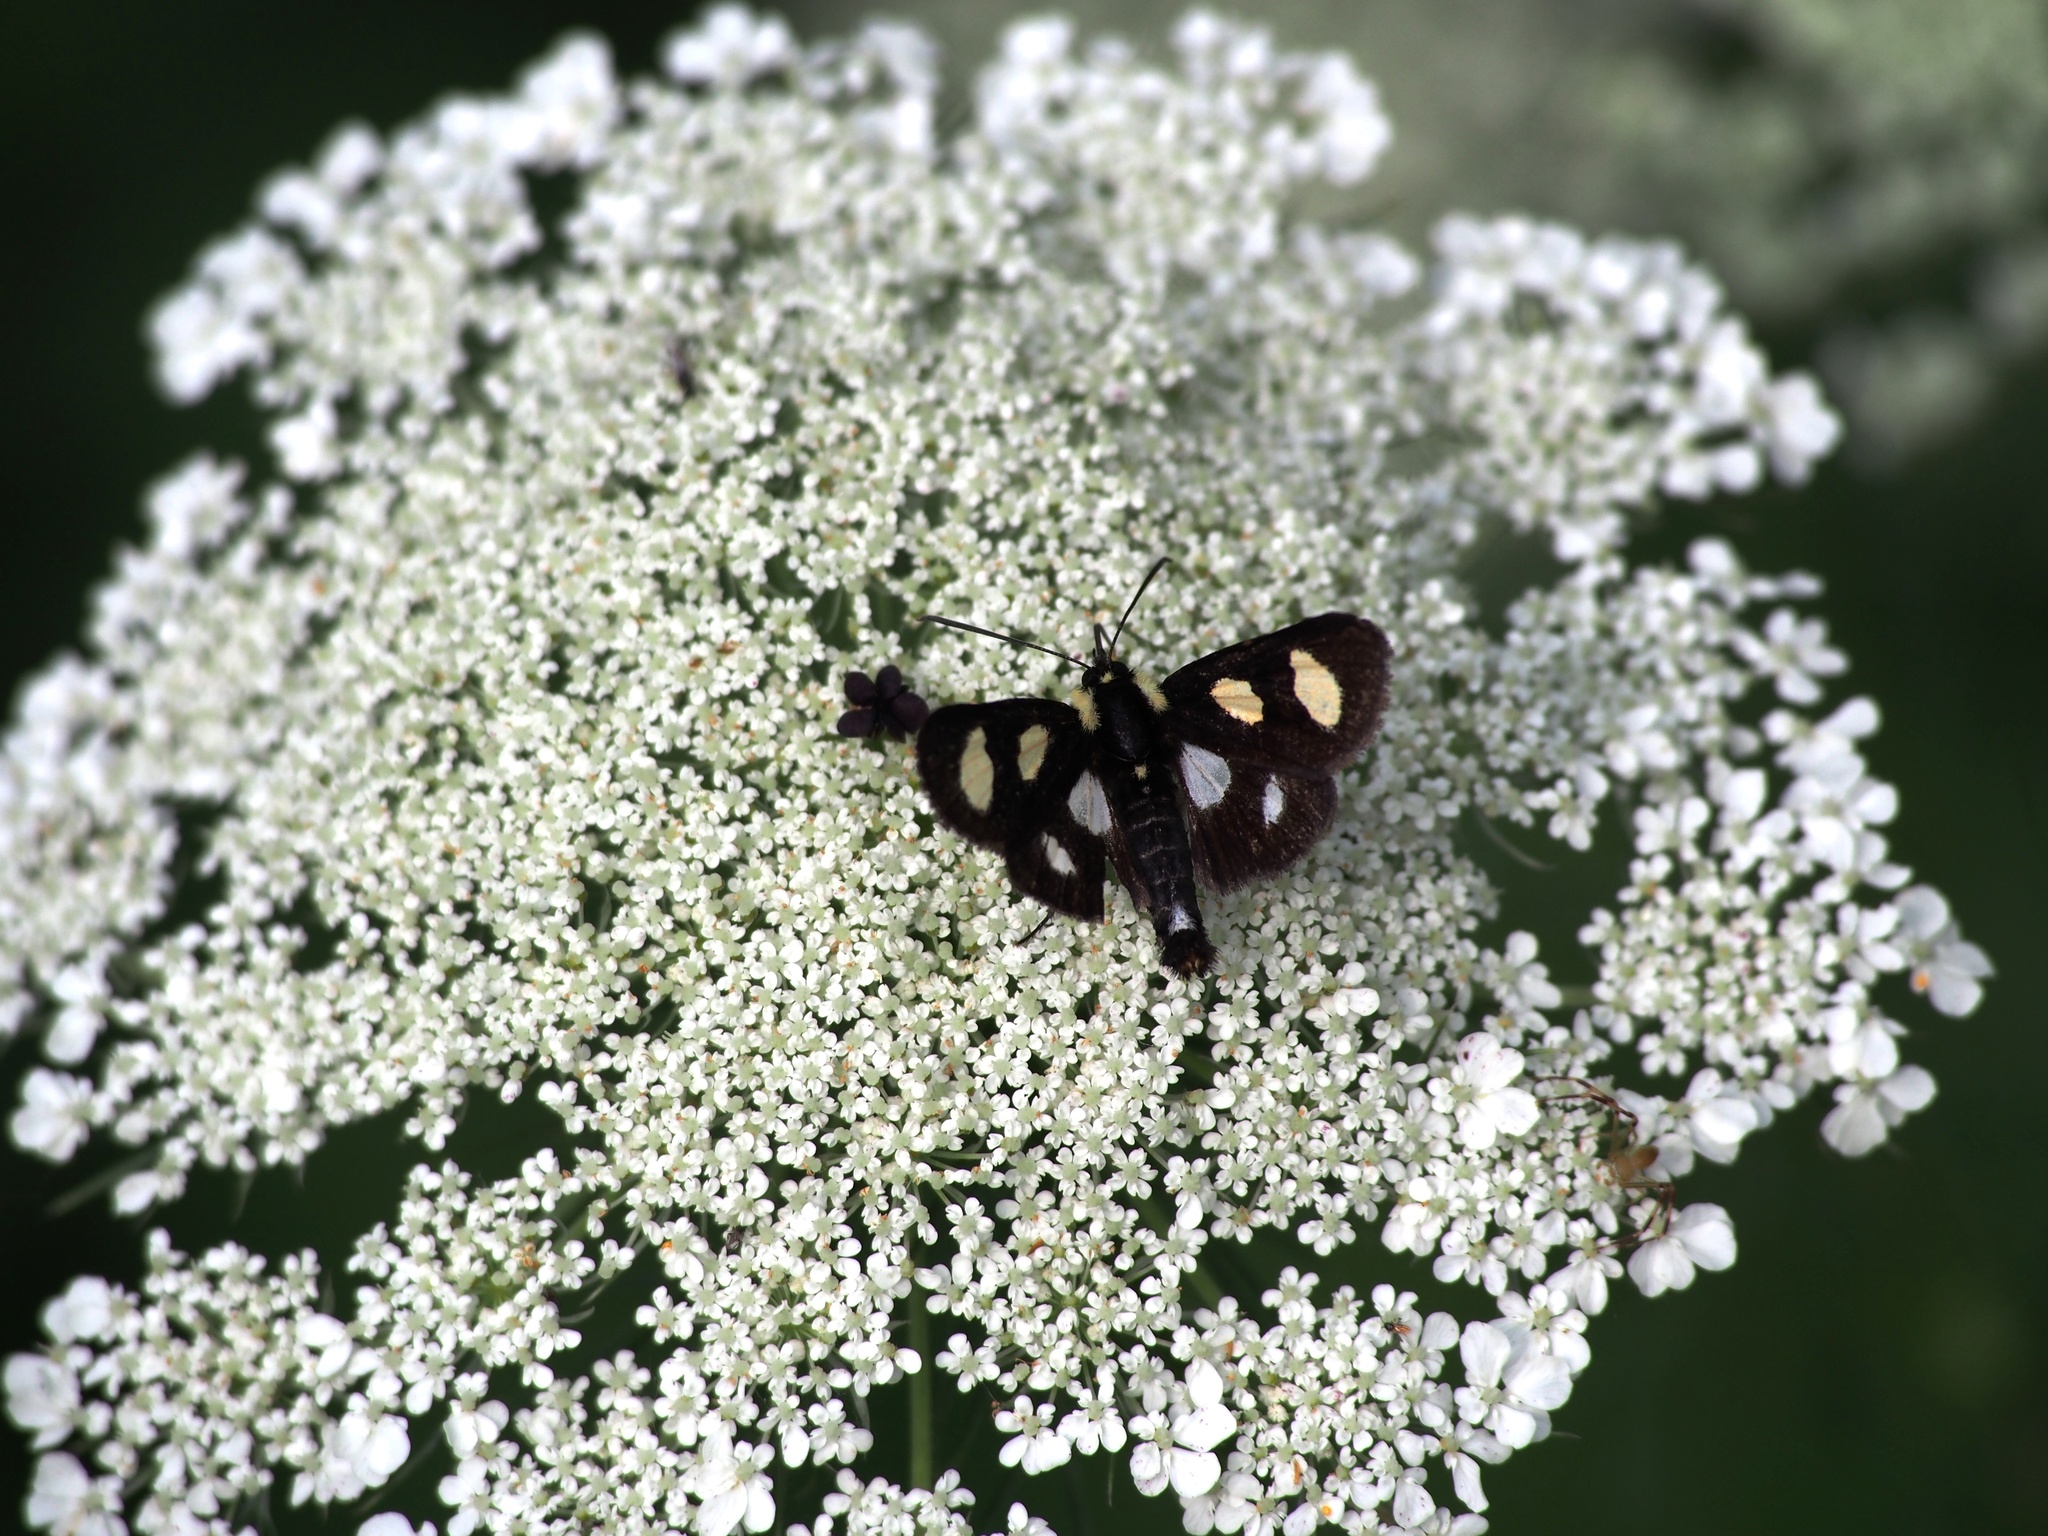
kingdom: Animalia
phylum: Arthropoda
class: Insecta
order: Lepidoptera
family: Noctuidae
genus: Alypia
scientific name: Alypia octomaculata
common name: Eight-spotted forester
